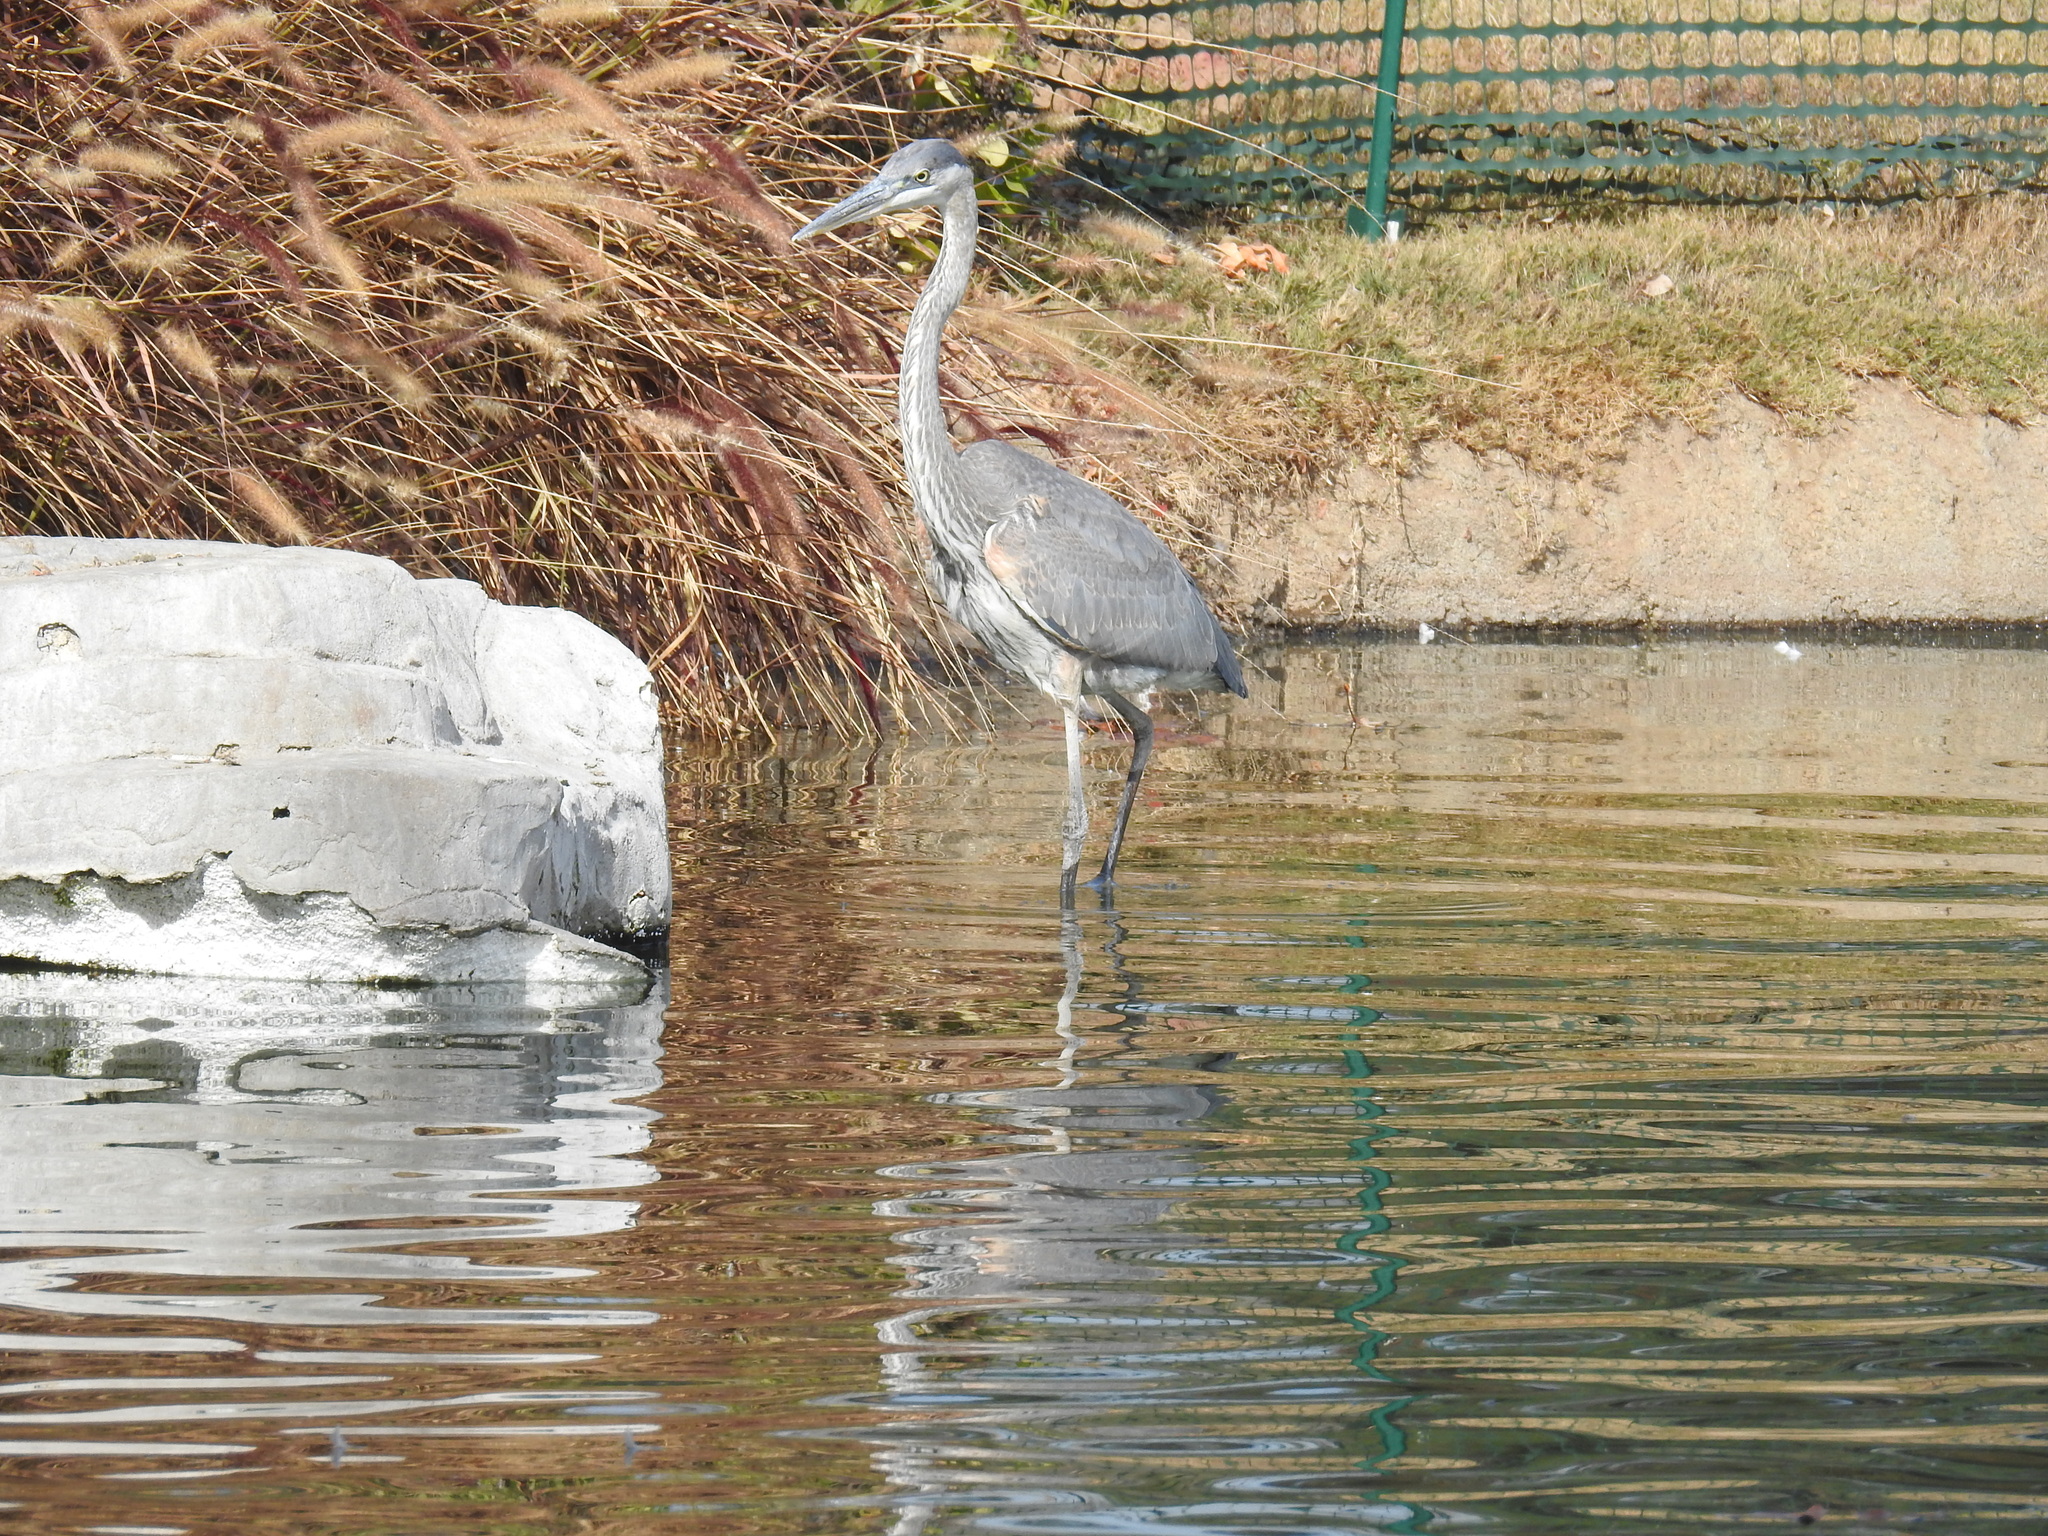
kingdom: Animalia
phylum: Chordata
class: Aves
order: Pelecaniformes
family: Ardeidae
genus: Ardea
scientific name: Ardea herodias
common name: Great blue heron
